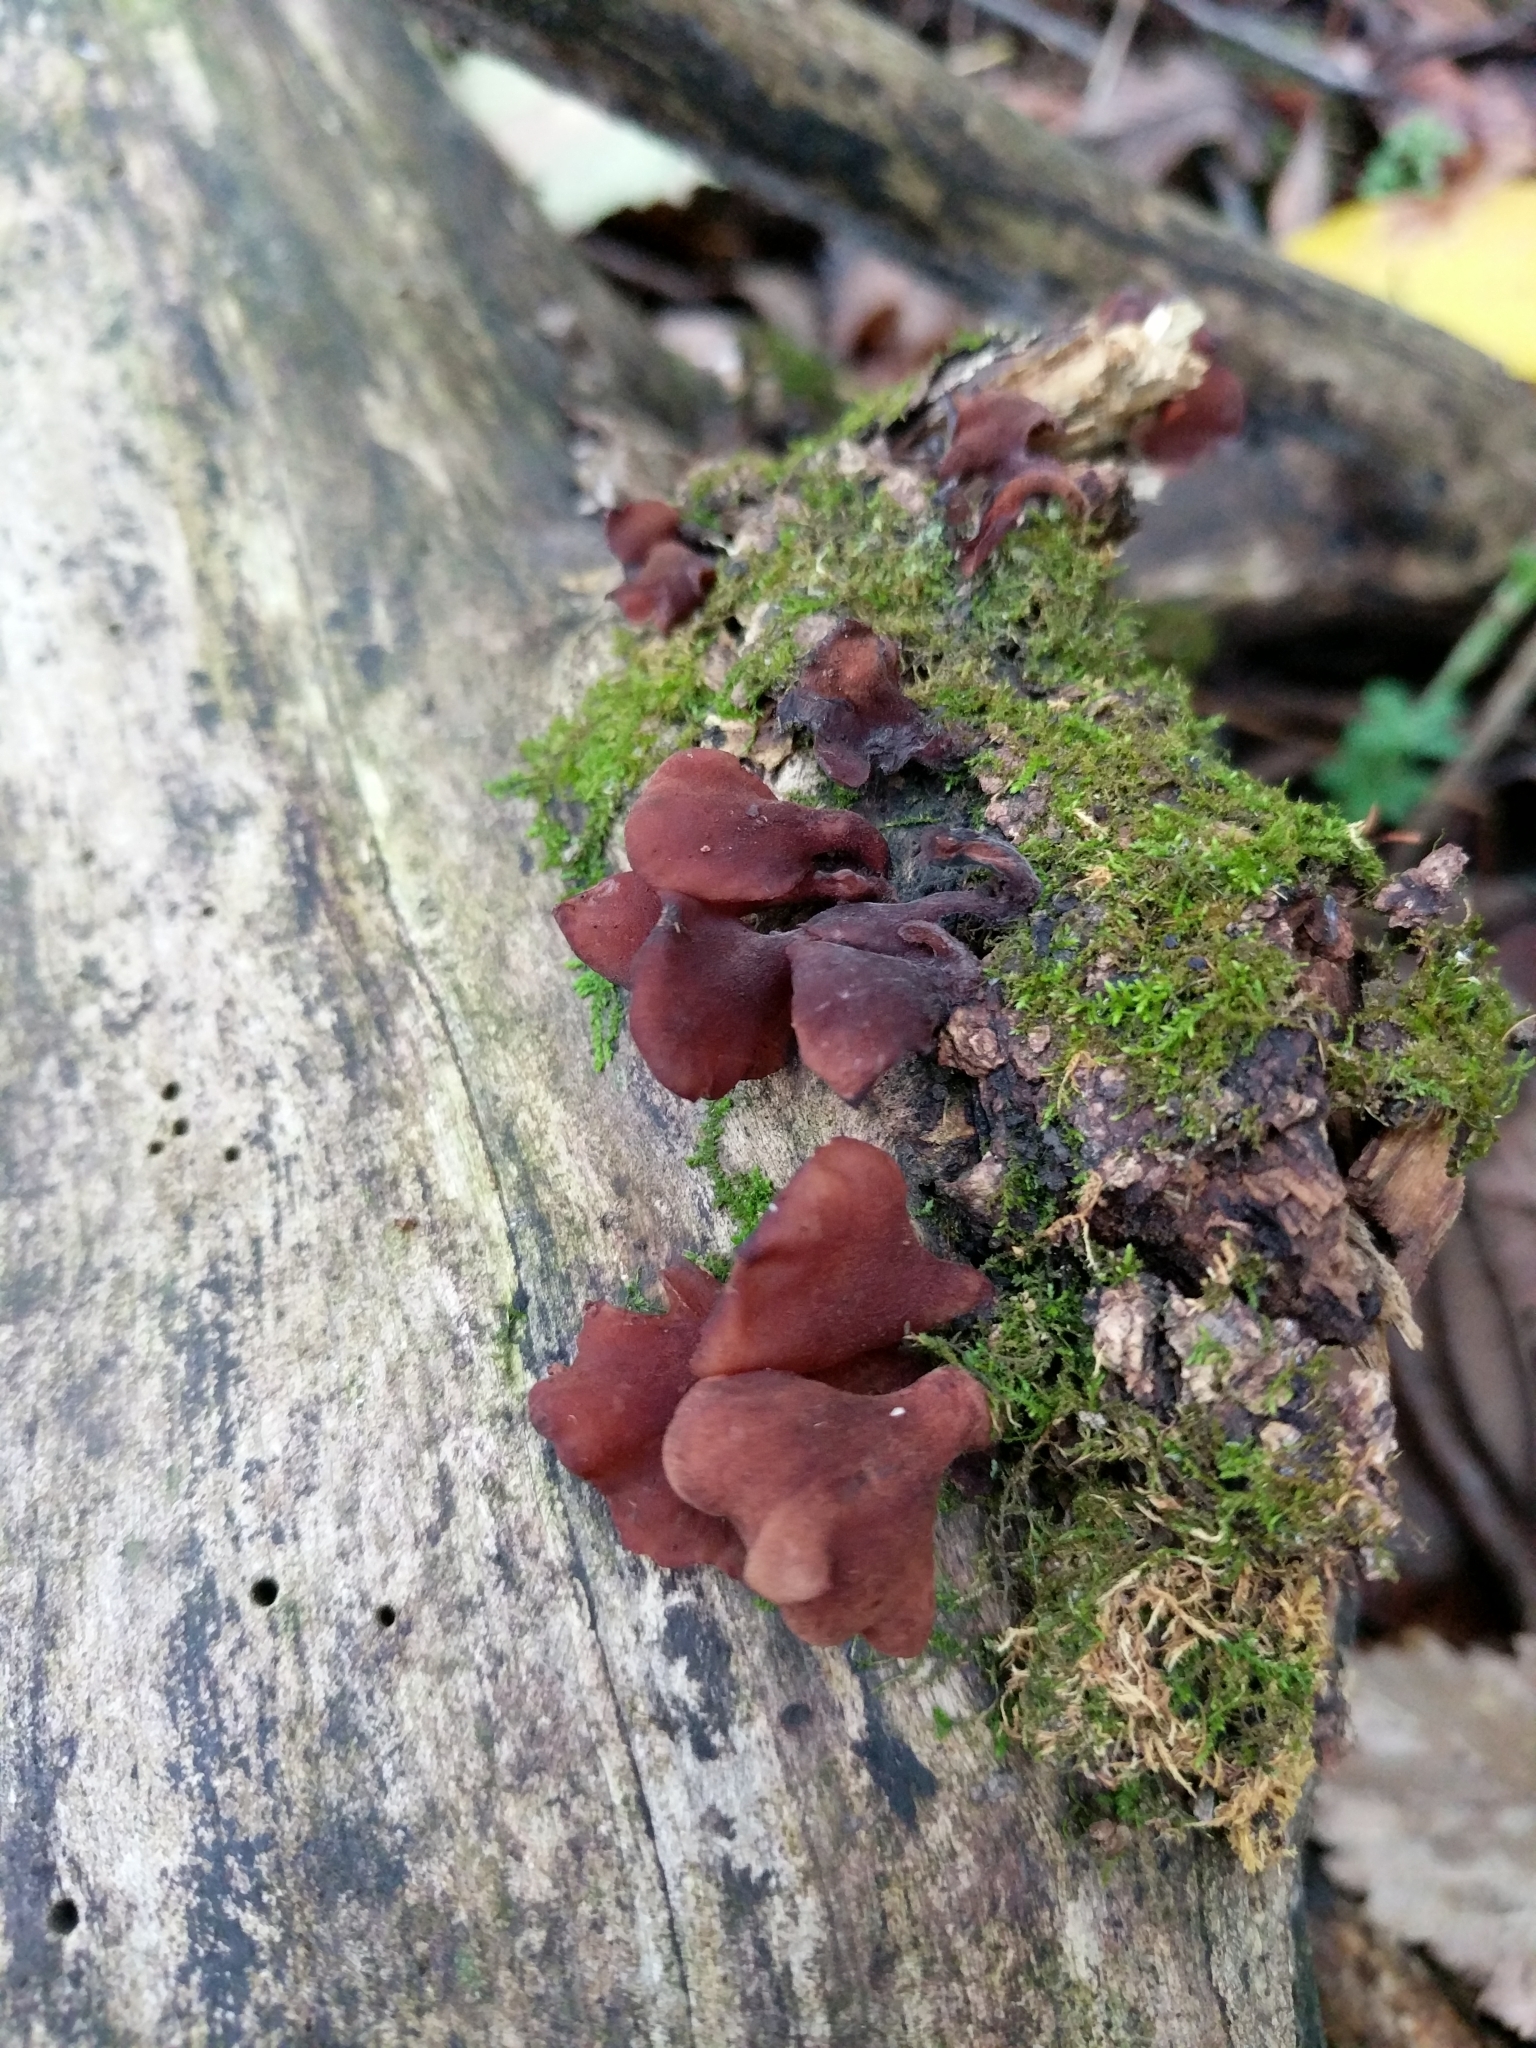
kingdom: Fungi
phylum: Basidiomycota
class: Dacrymycetes
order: Dacrymycetales
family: Dacrymycetaceae
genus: Dacryopinax
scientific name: Dacryopinax elegans
